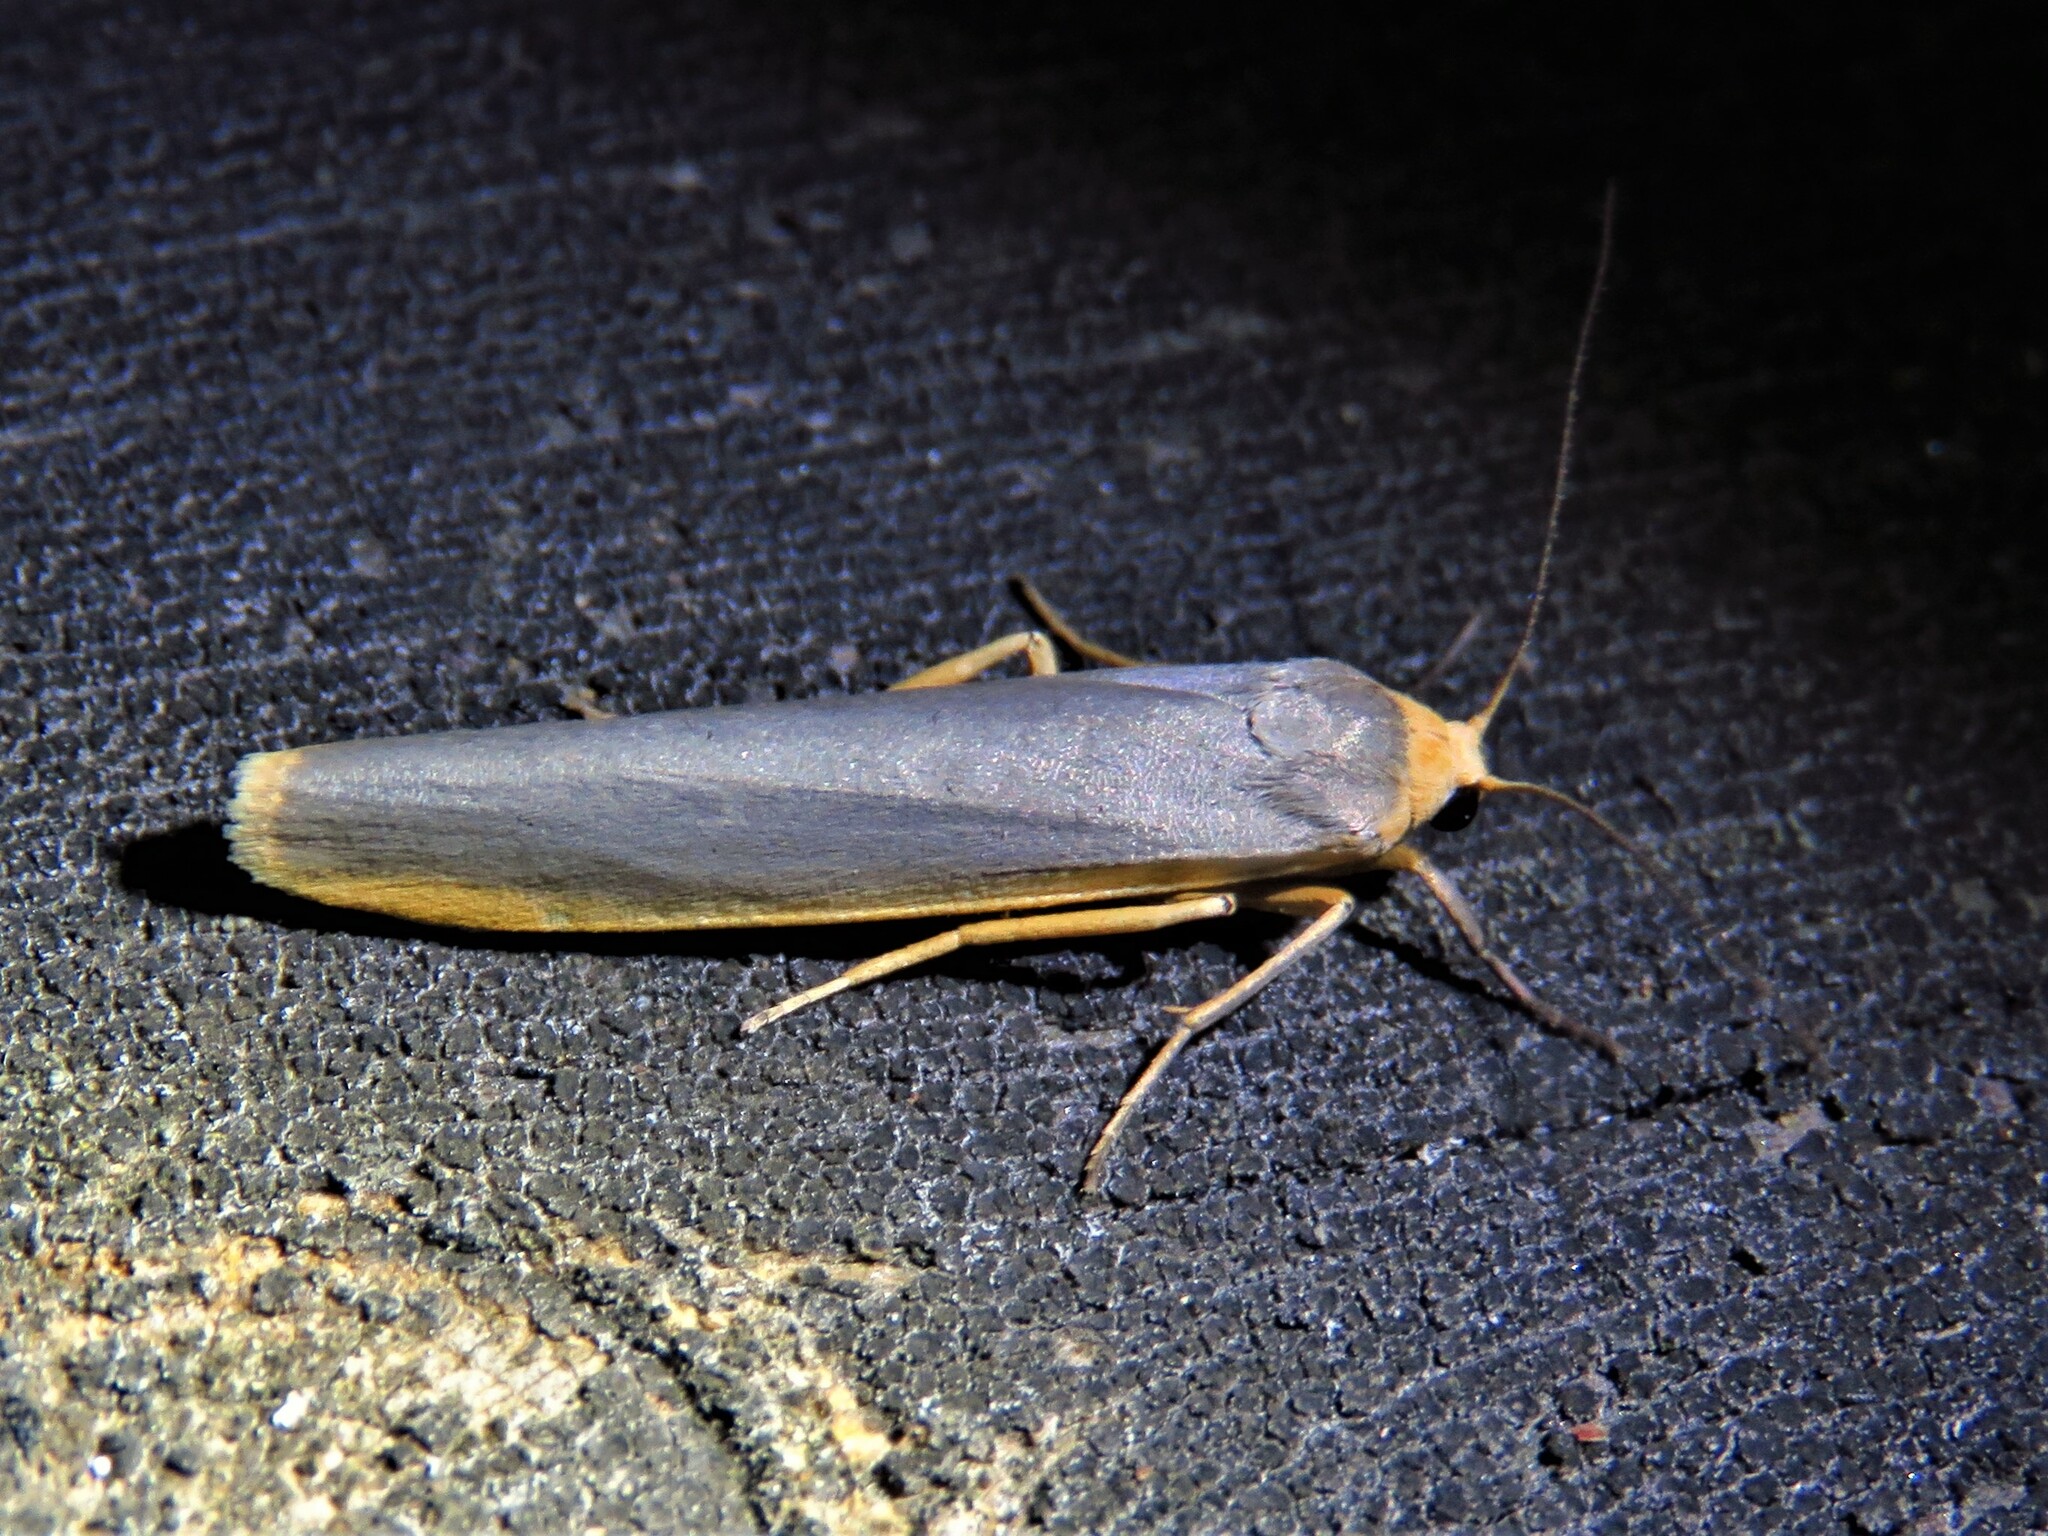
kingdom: Animalia
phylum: Arthropoda
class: Insecta
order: Lepidoptera
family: Erebidae
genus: Manulea
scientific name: Manulea complana
